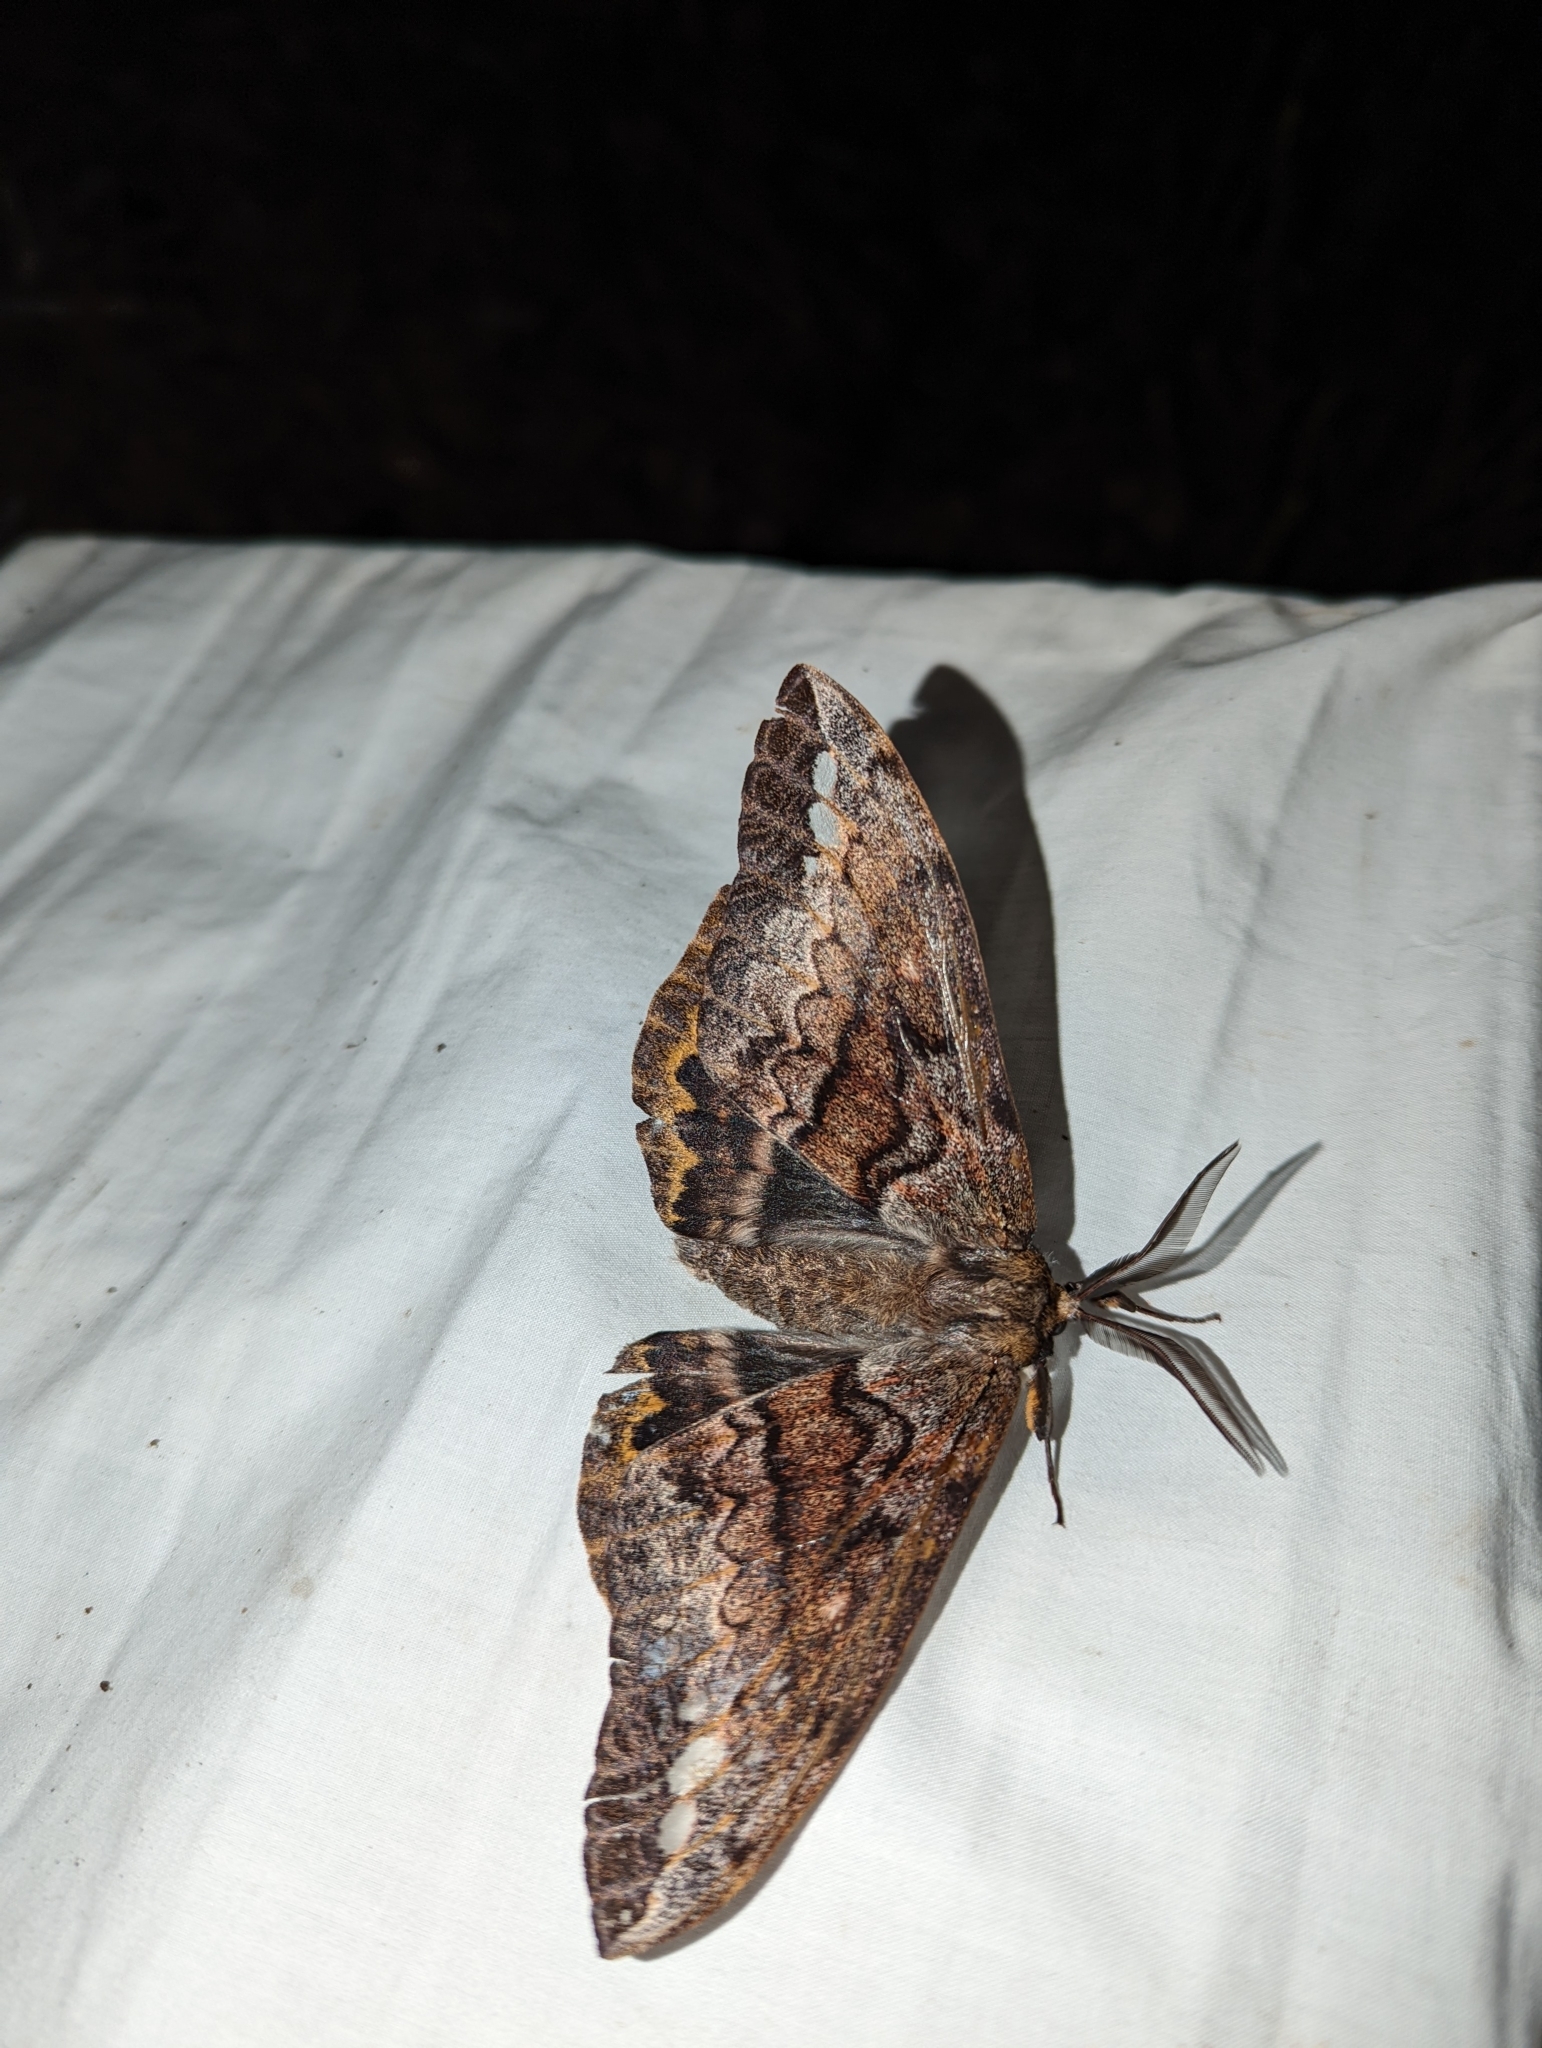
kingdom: Animalia
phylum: Arthropoda
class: Insecta
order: Lepidoptera
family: Anthelidae
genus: Chelepteryx
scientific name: Chelepteryx collesi
